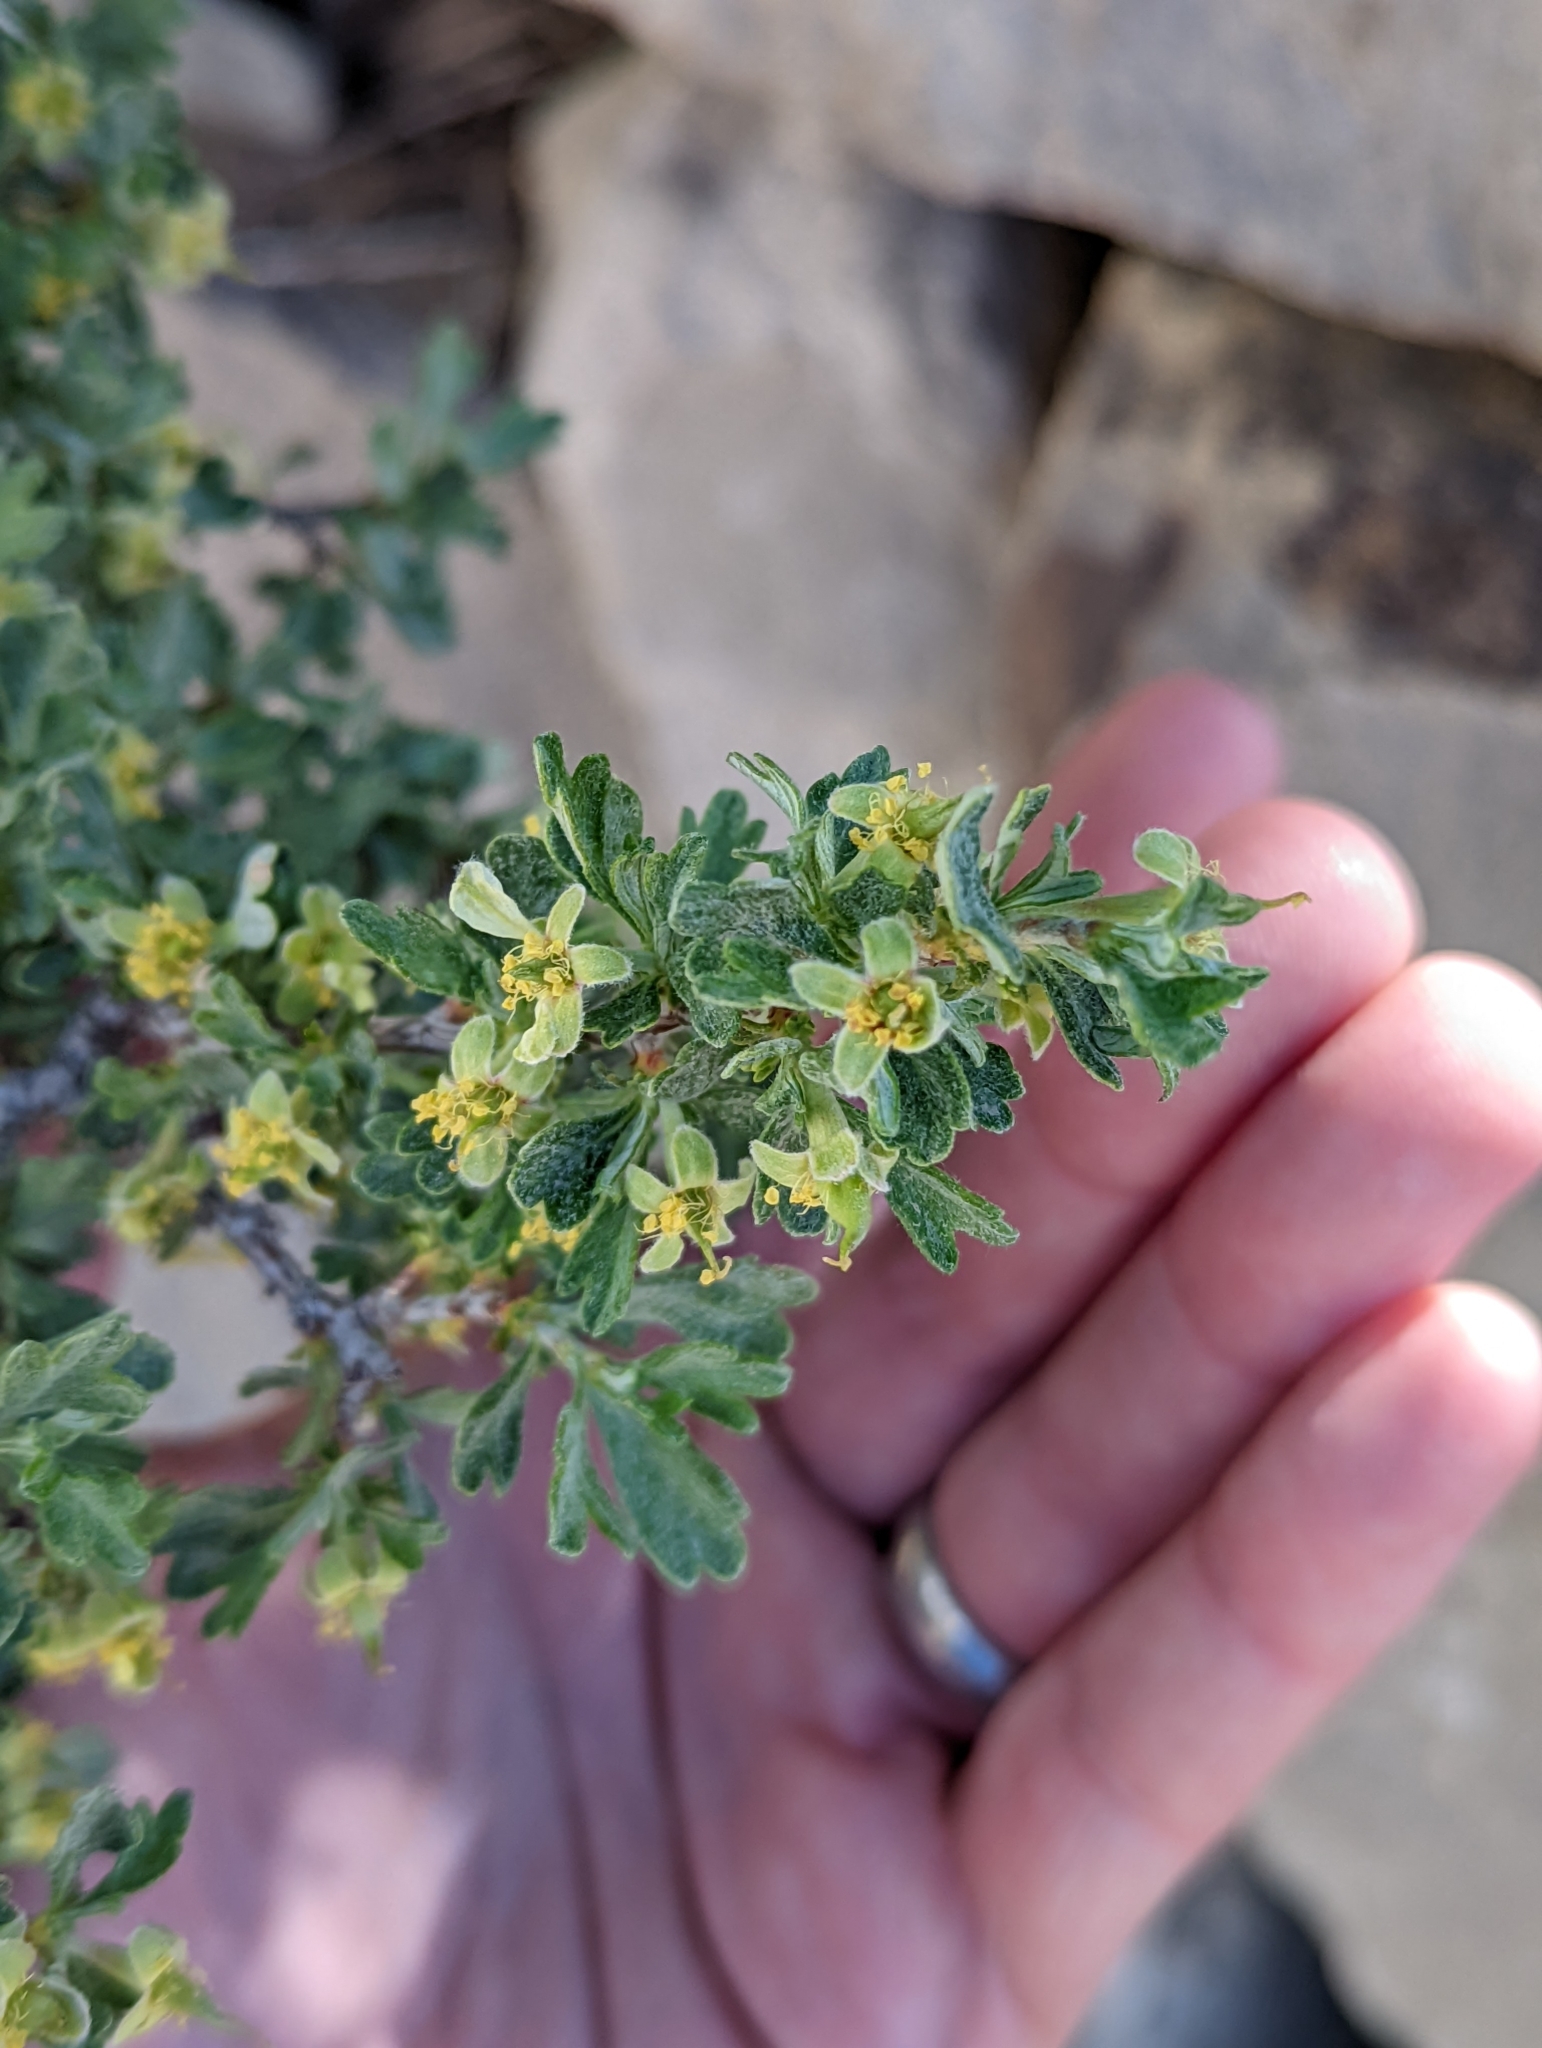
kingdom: Plantae
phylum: Tracheophyta
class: Magnoliopsida
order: Rosales
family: Rosaceae
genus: Purshia
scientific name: Purshia tridentata
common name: Antelope bitterbrush
